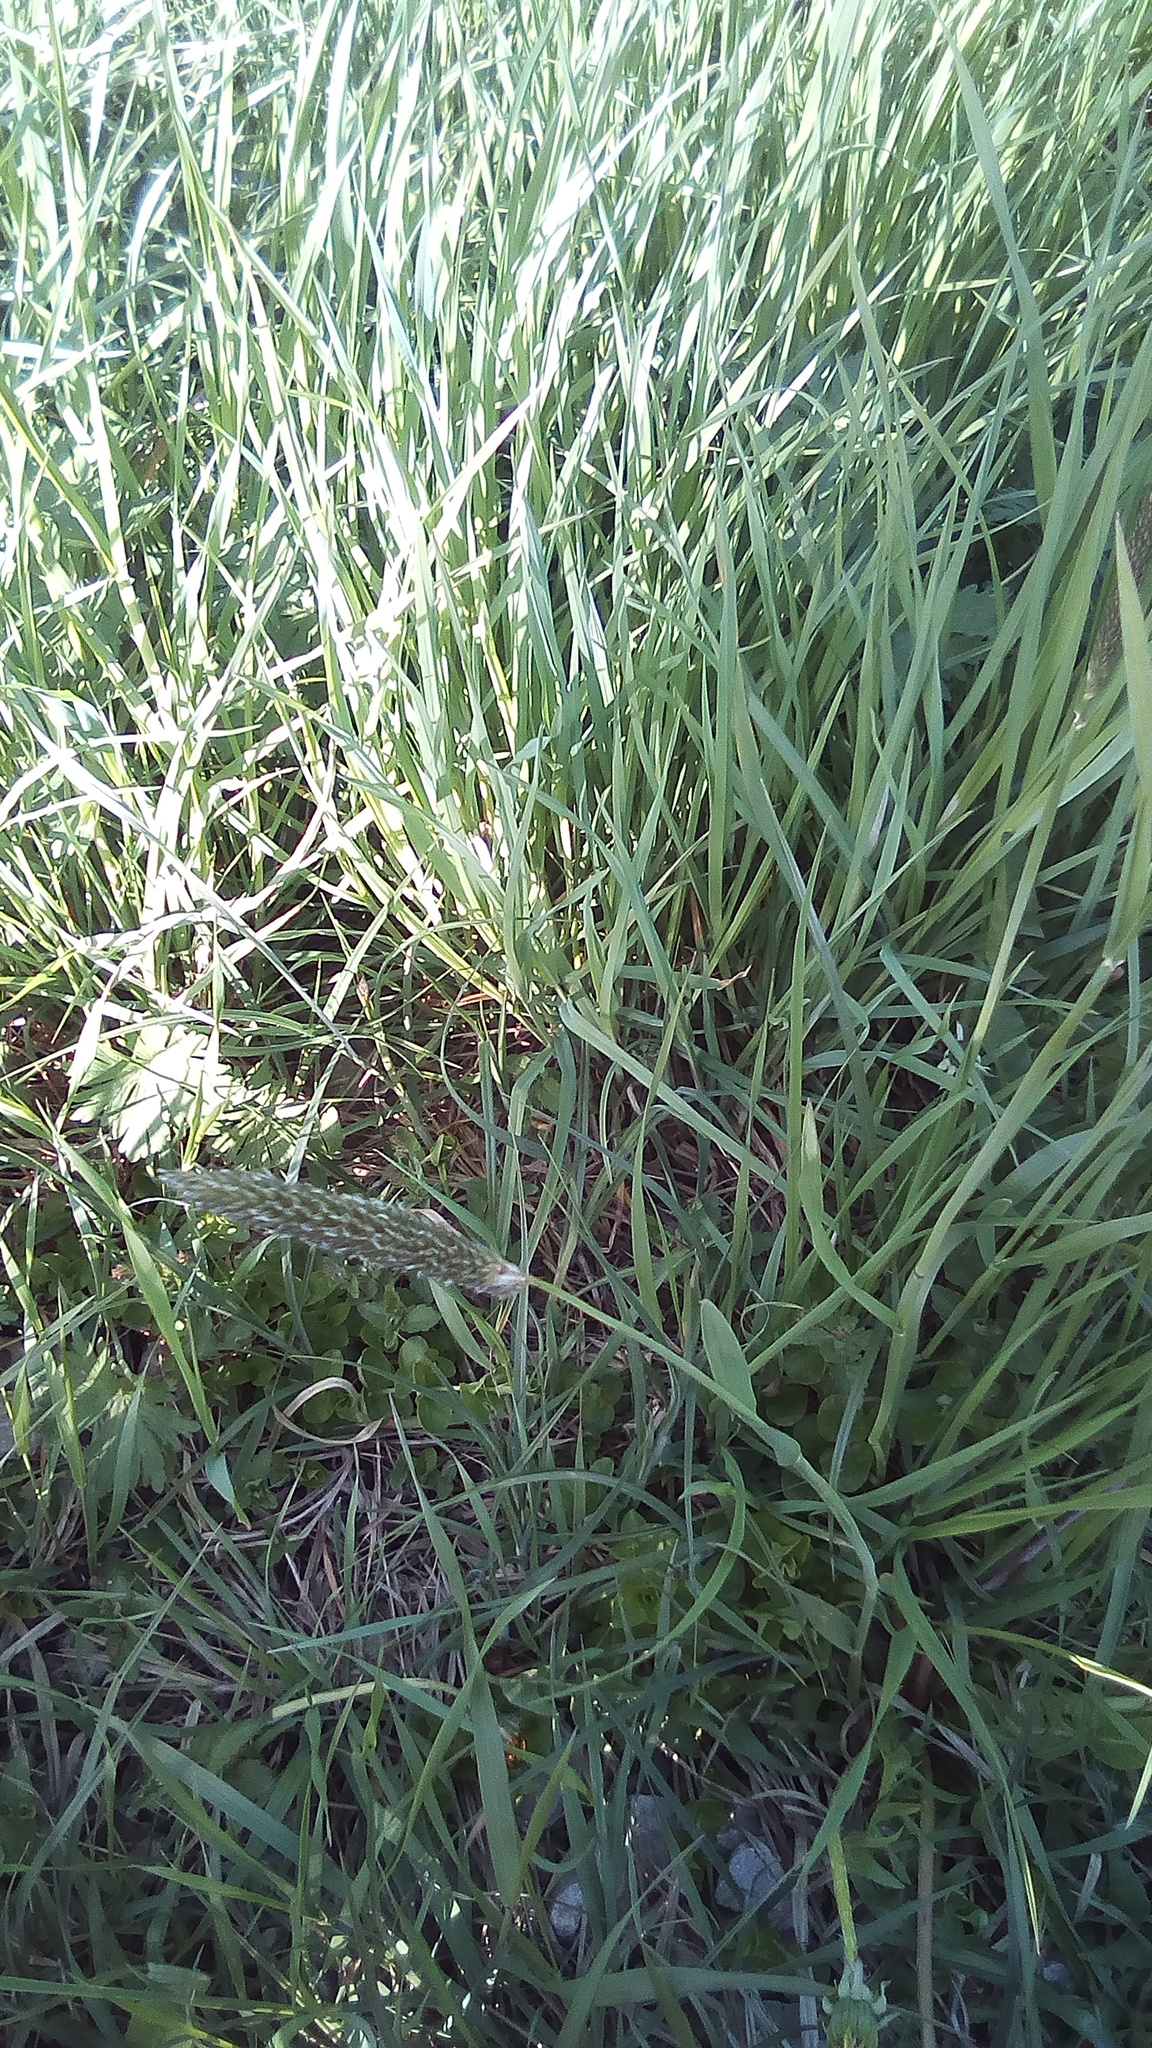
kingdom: Plantae
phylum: Tracheophyta
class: Liliopsida
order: Poales
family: Poaceae
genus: Alopecurus
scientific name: Alopecurus pratensis
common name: Meadow foxtail
